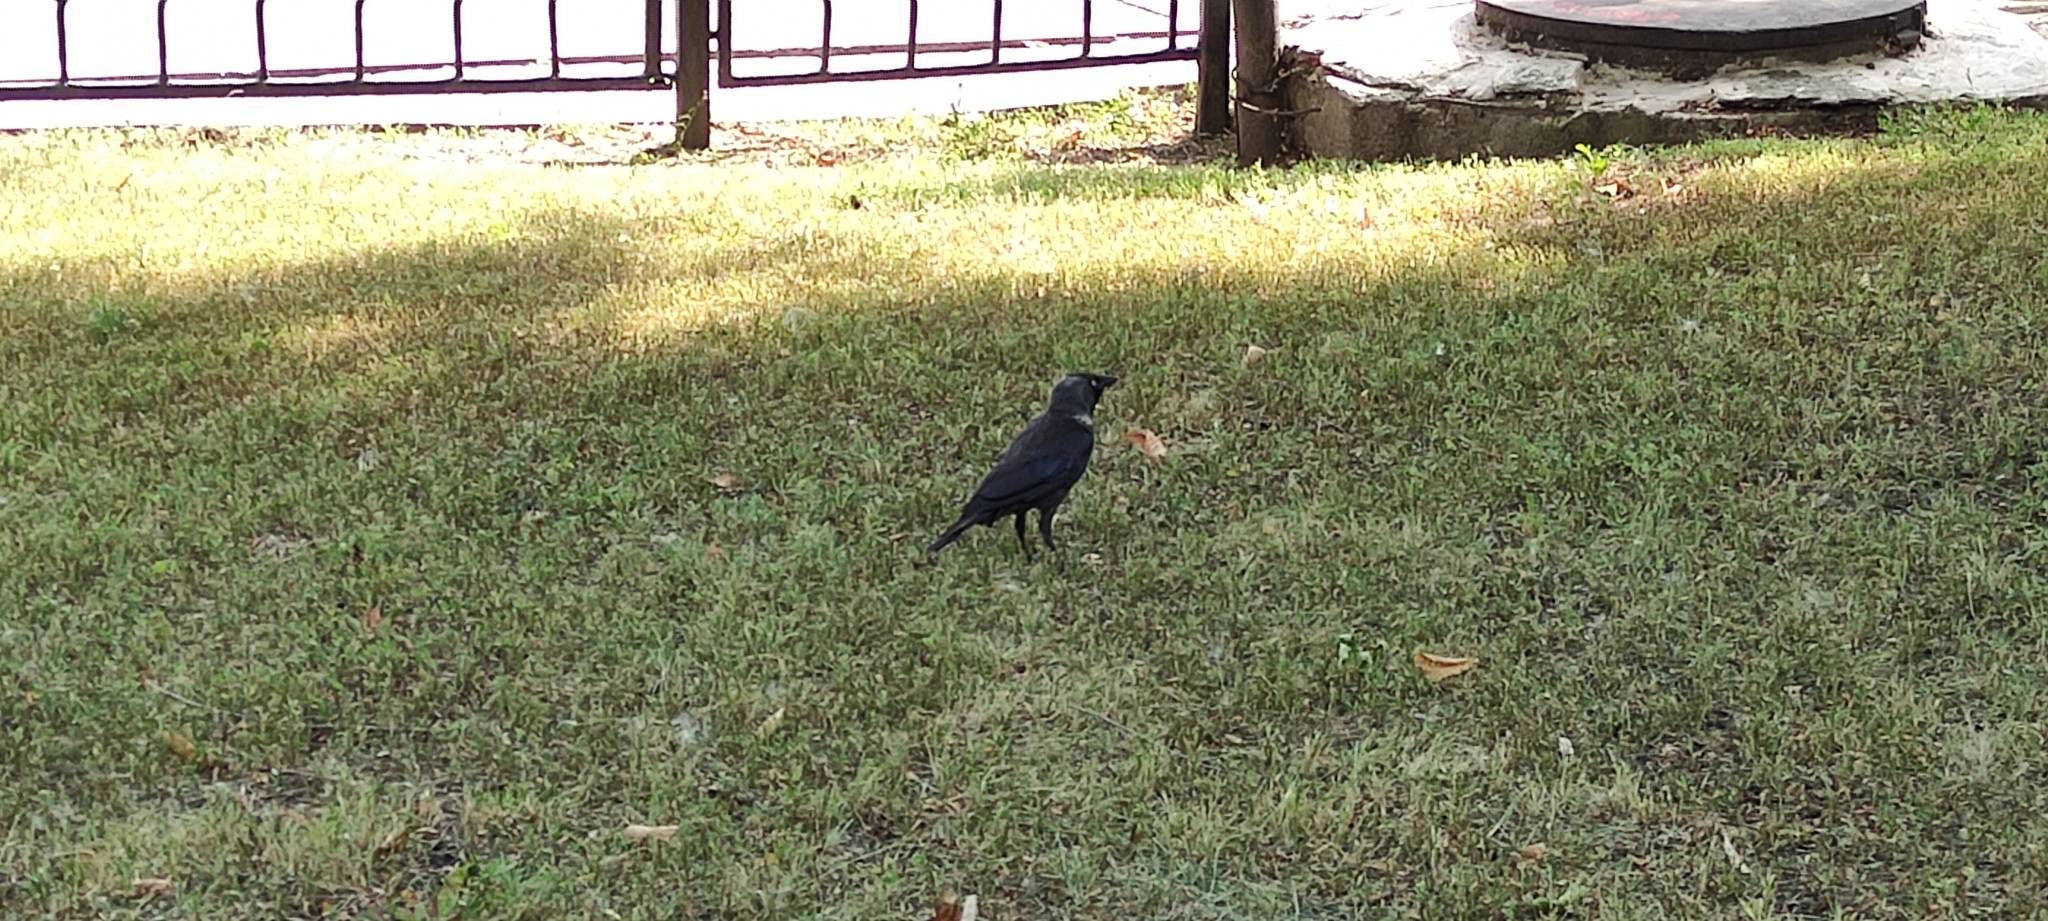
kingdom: Animalia
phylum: Chordata
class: Aves
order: Passeriformes
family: Corvidae
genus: Coloeus
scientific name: Coloeus monedula
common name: Western jackdaw
